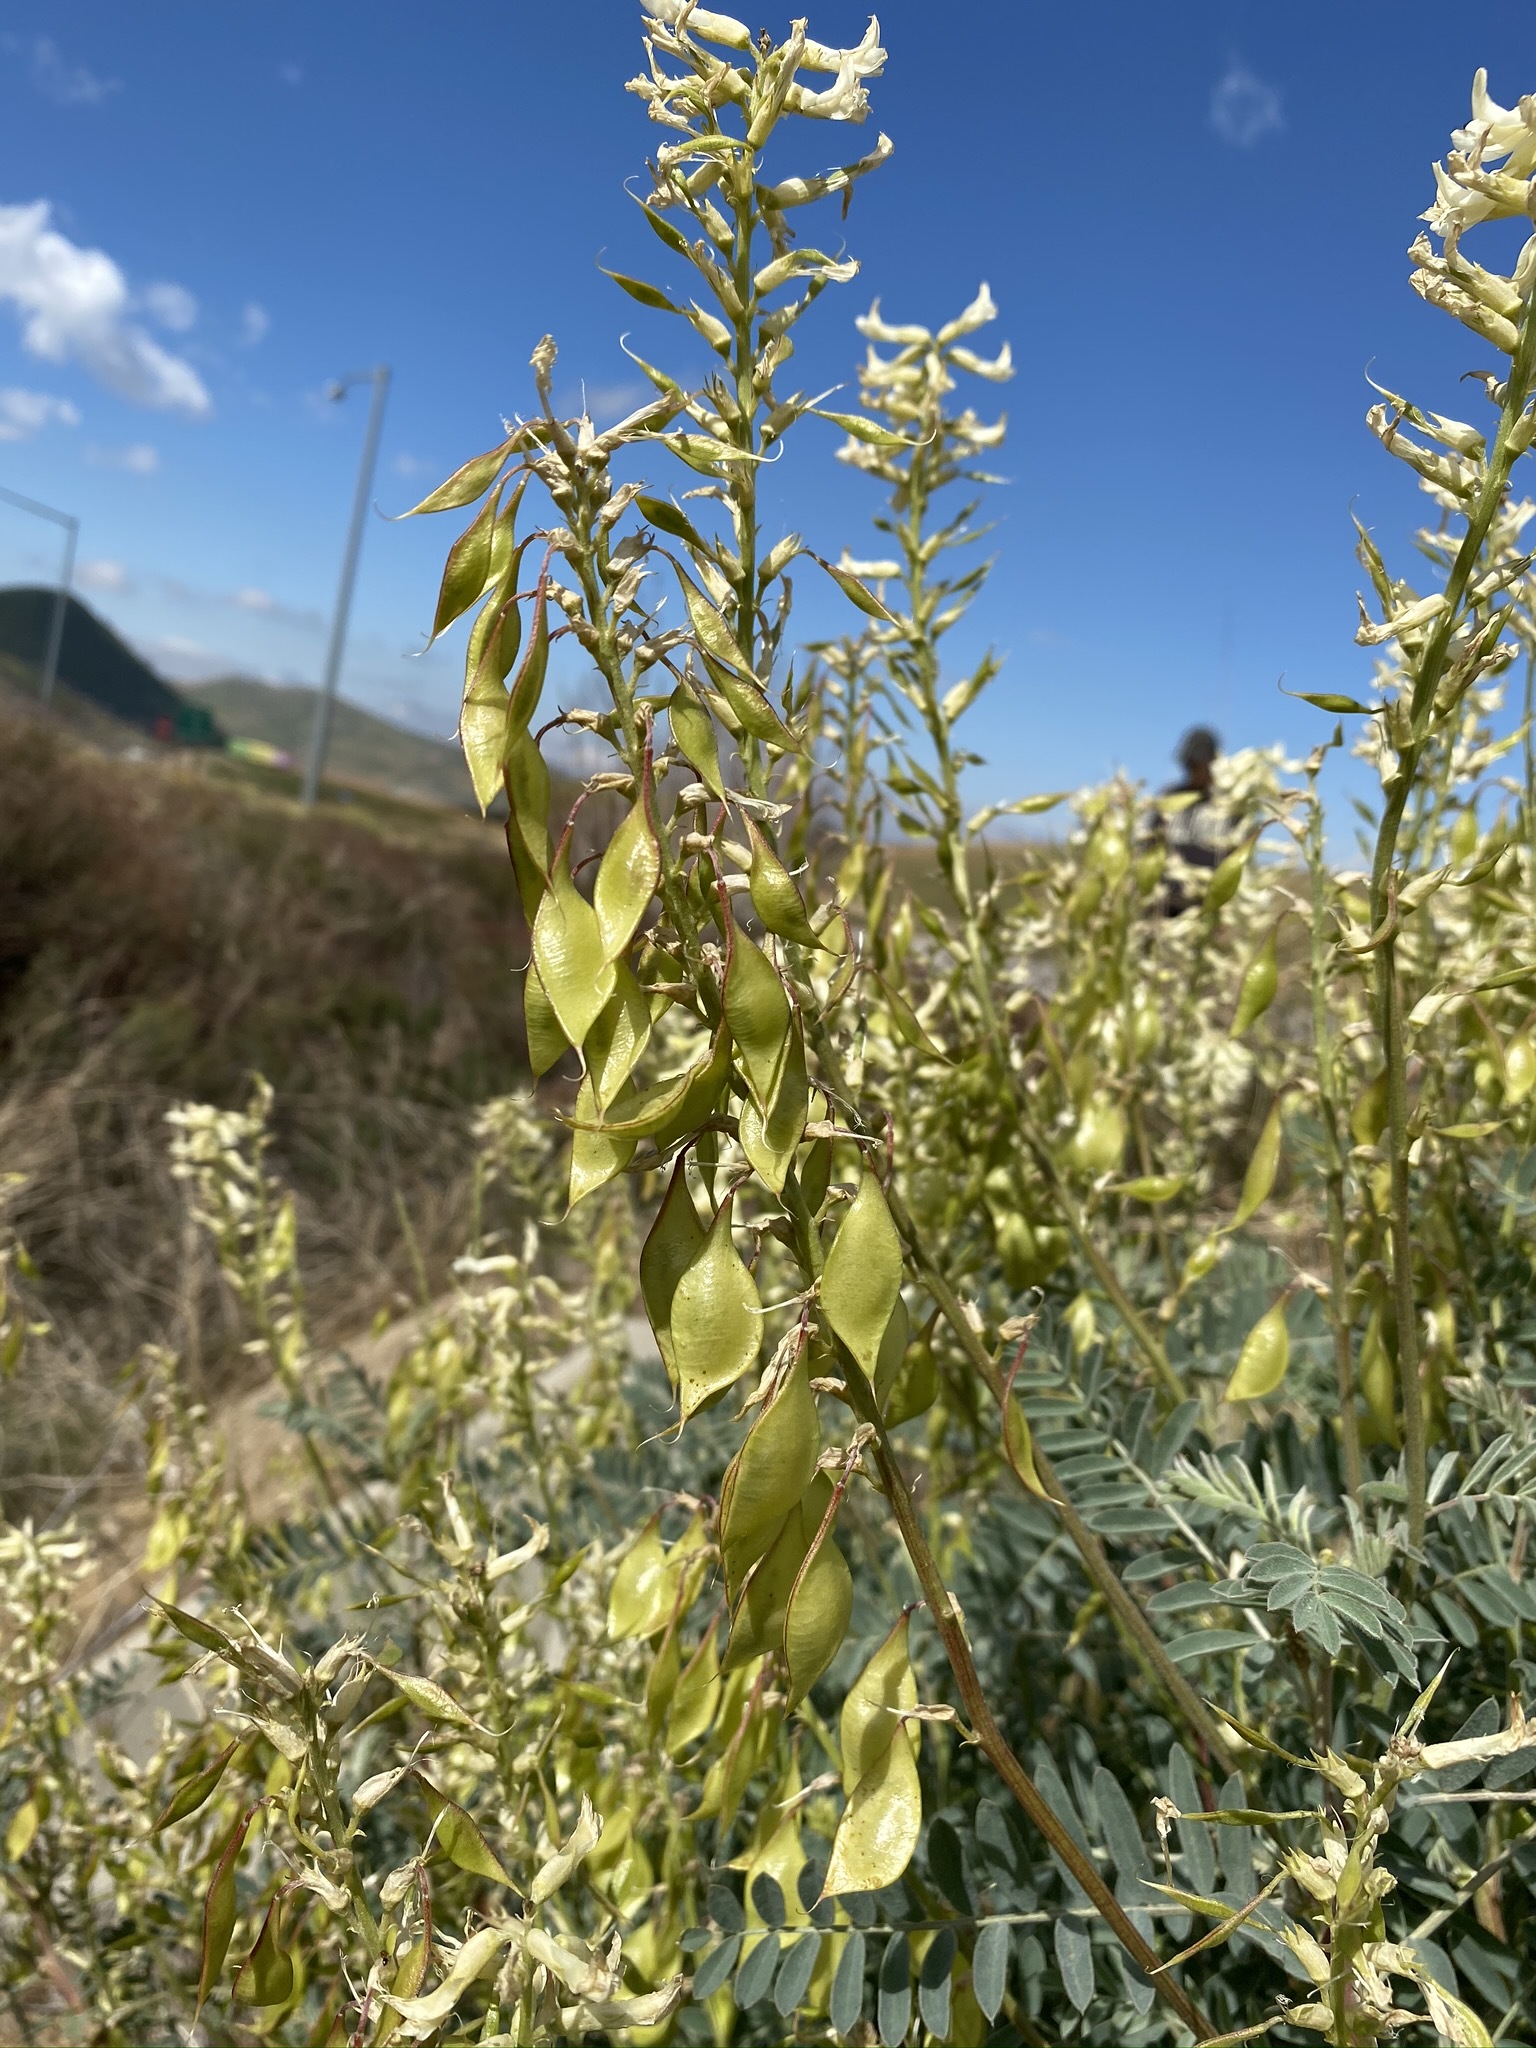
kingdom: Plantae
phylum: Tracheophyta
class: Magnoliopsida
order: Fabales
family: Fabaceae
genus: Astragalus
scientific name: Astragalus oxyphysus
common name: Stanislaus milk-vetch
